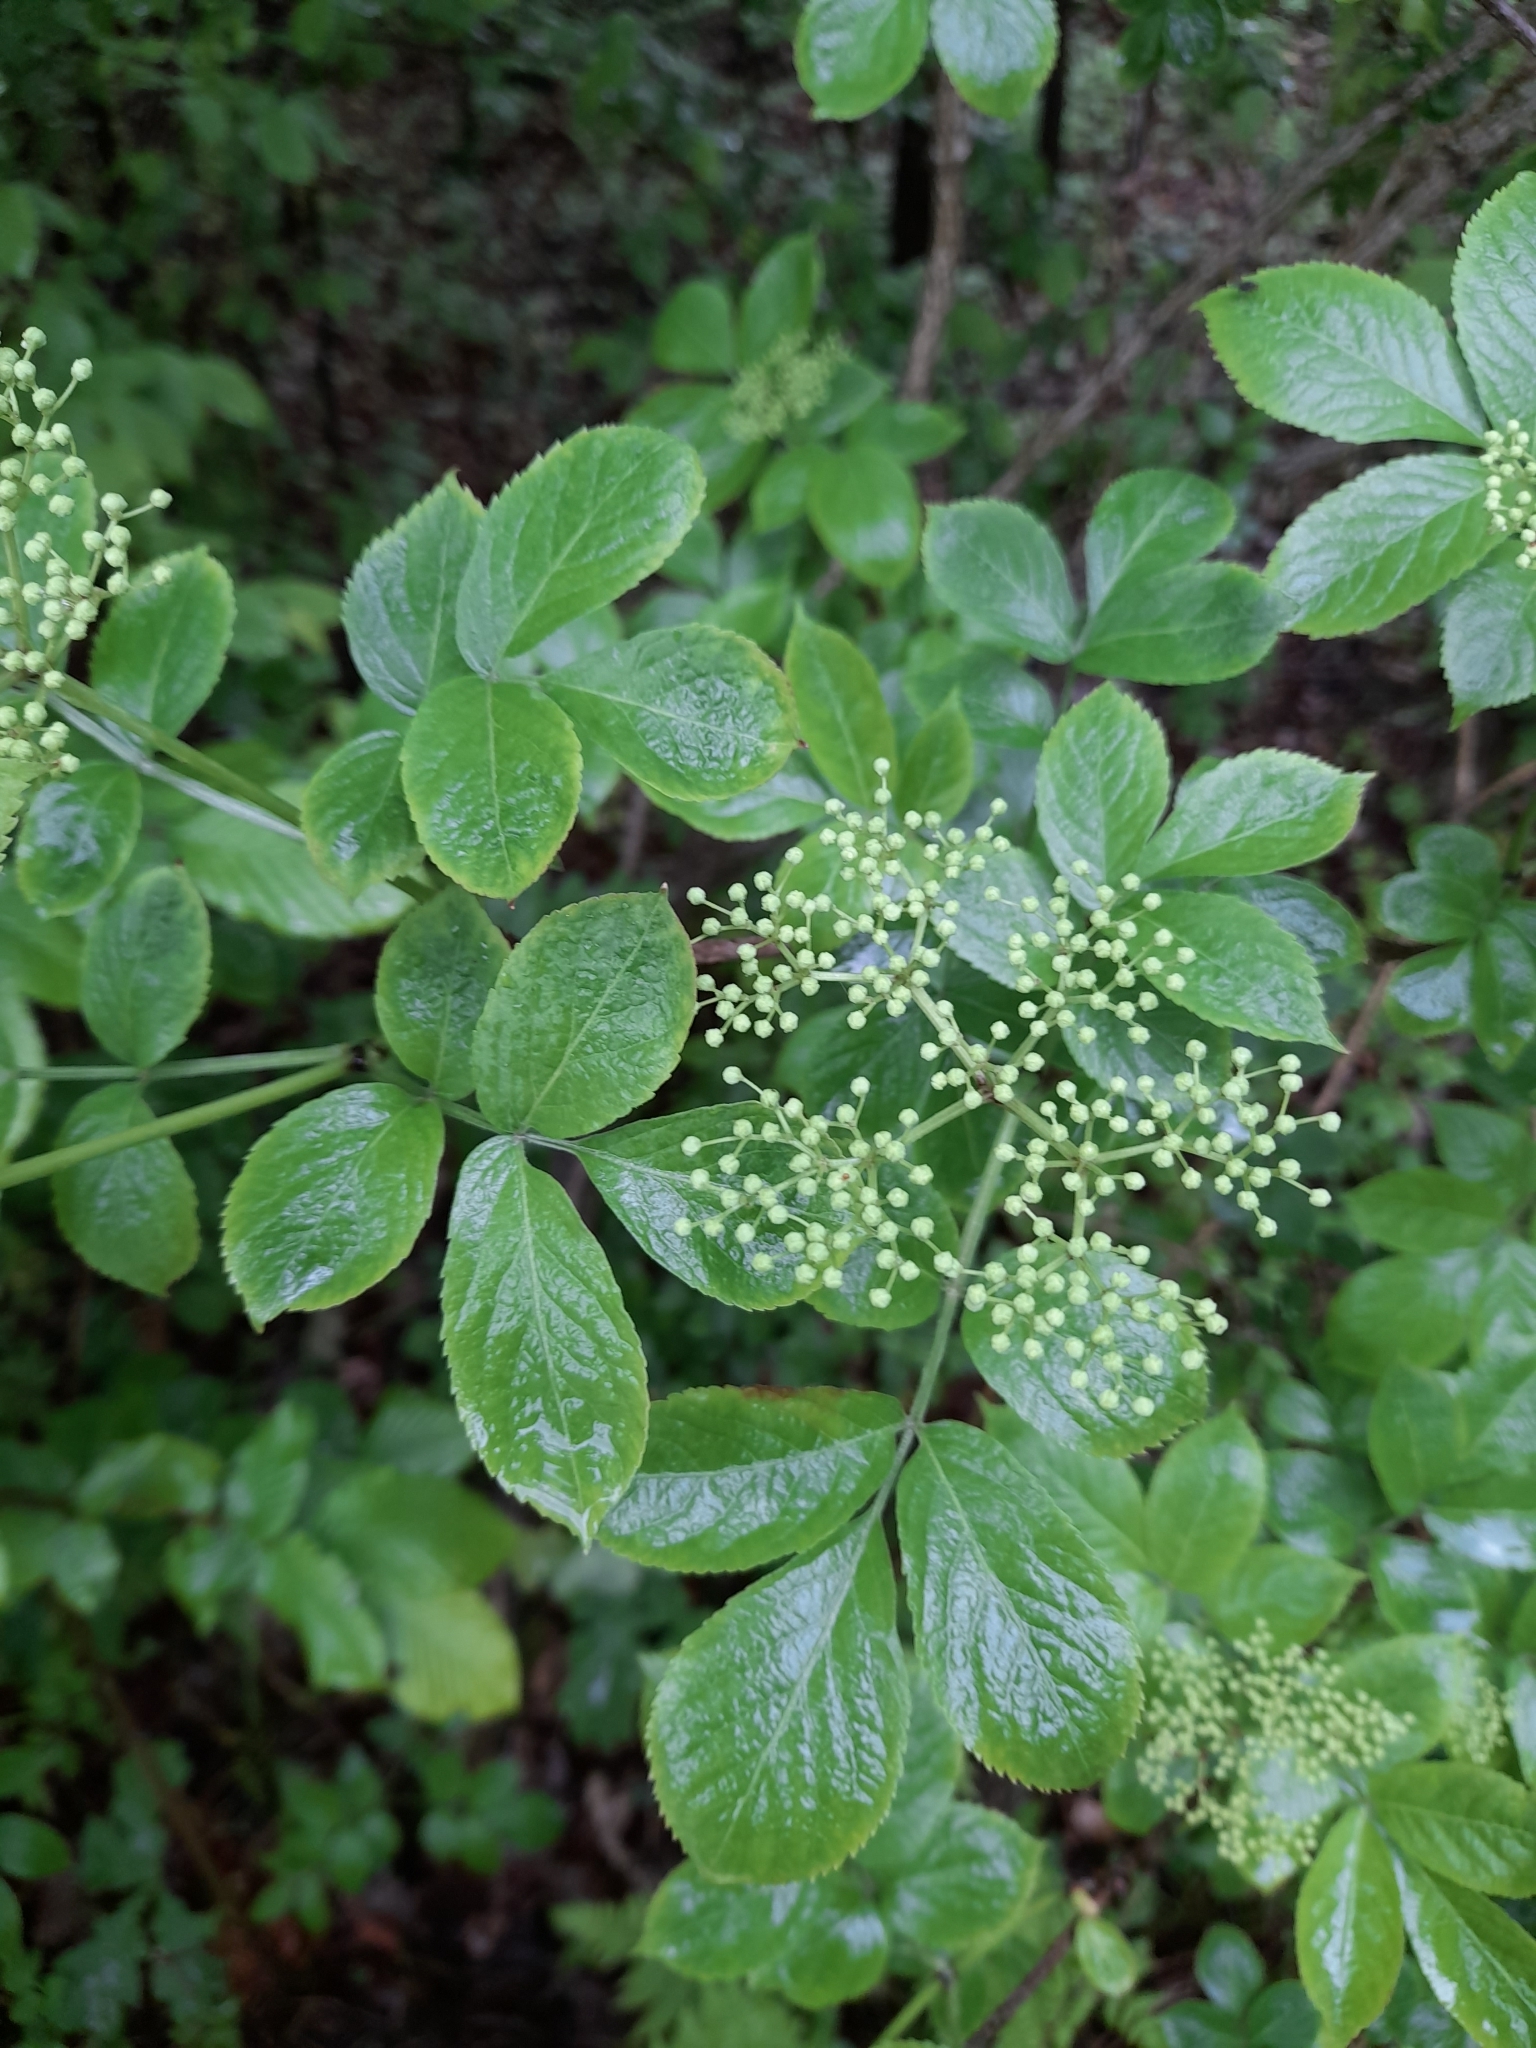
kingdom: Plantae
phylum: Tracheophyta
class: Magnoliopsida
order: Dipsacales
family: Viburnaceae
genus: Sambucus
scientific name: Sambucus nigra
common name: Elder
